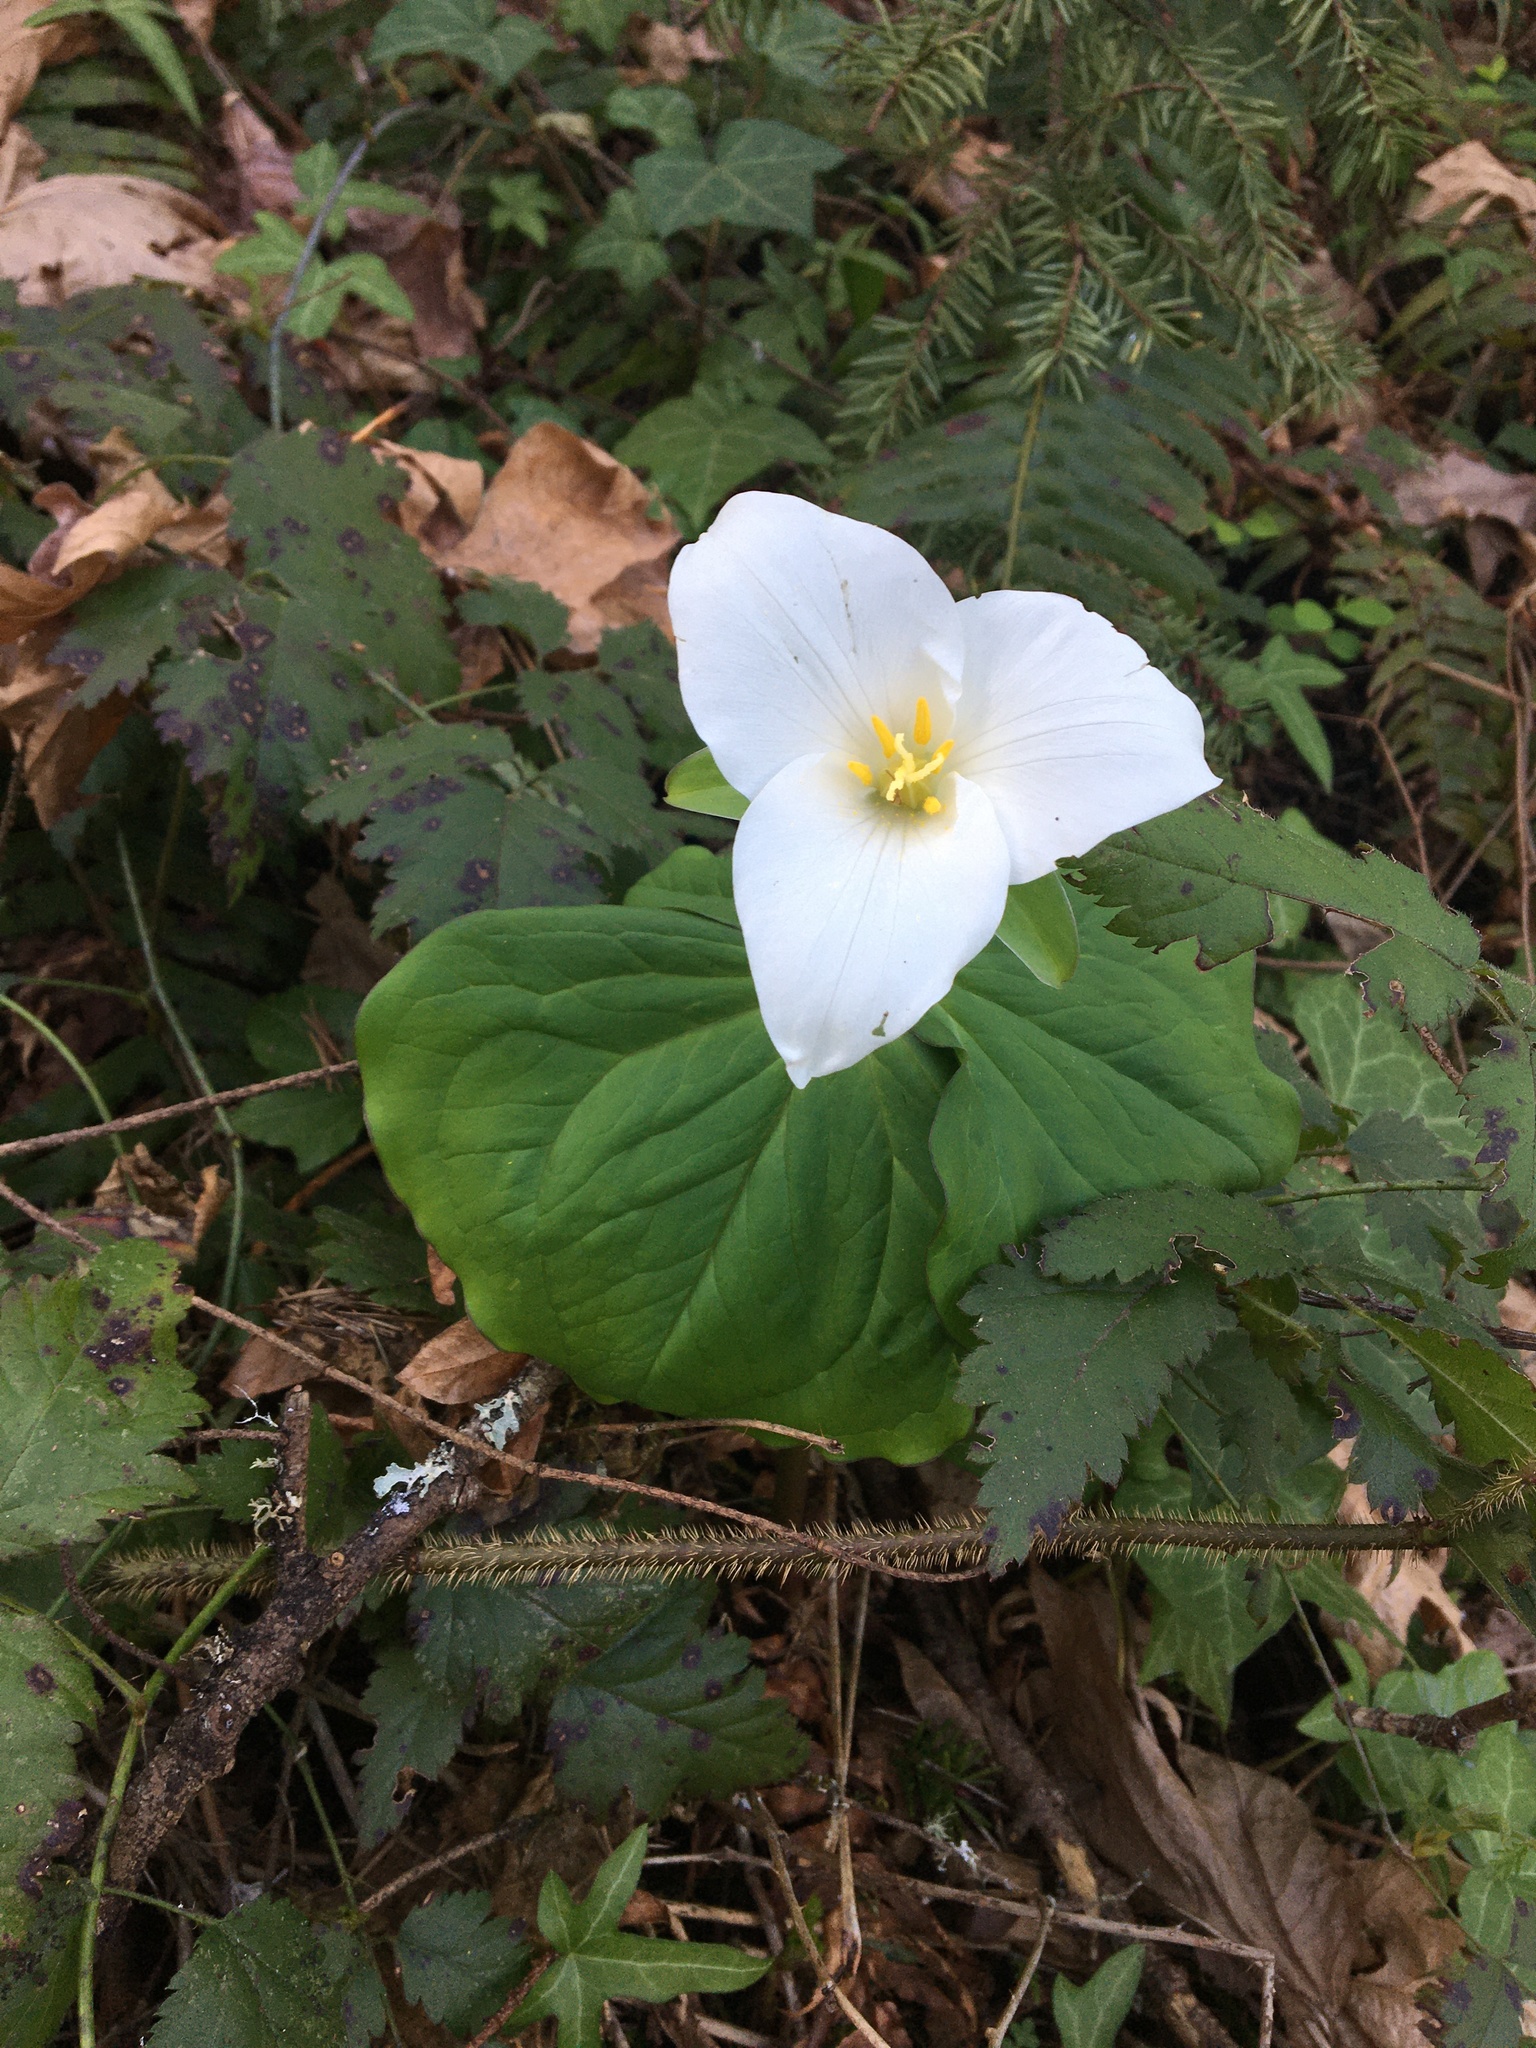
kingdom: Plantae
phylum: Tracheophyta
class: Liliopsida
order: Liliales
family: Melanthiaceae
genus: Trillium
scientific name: Trillium ovatum
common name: Pacific trillium
